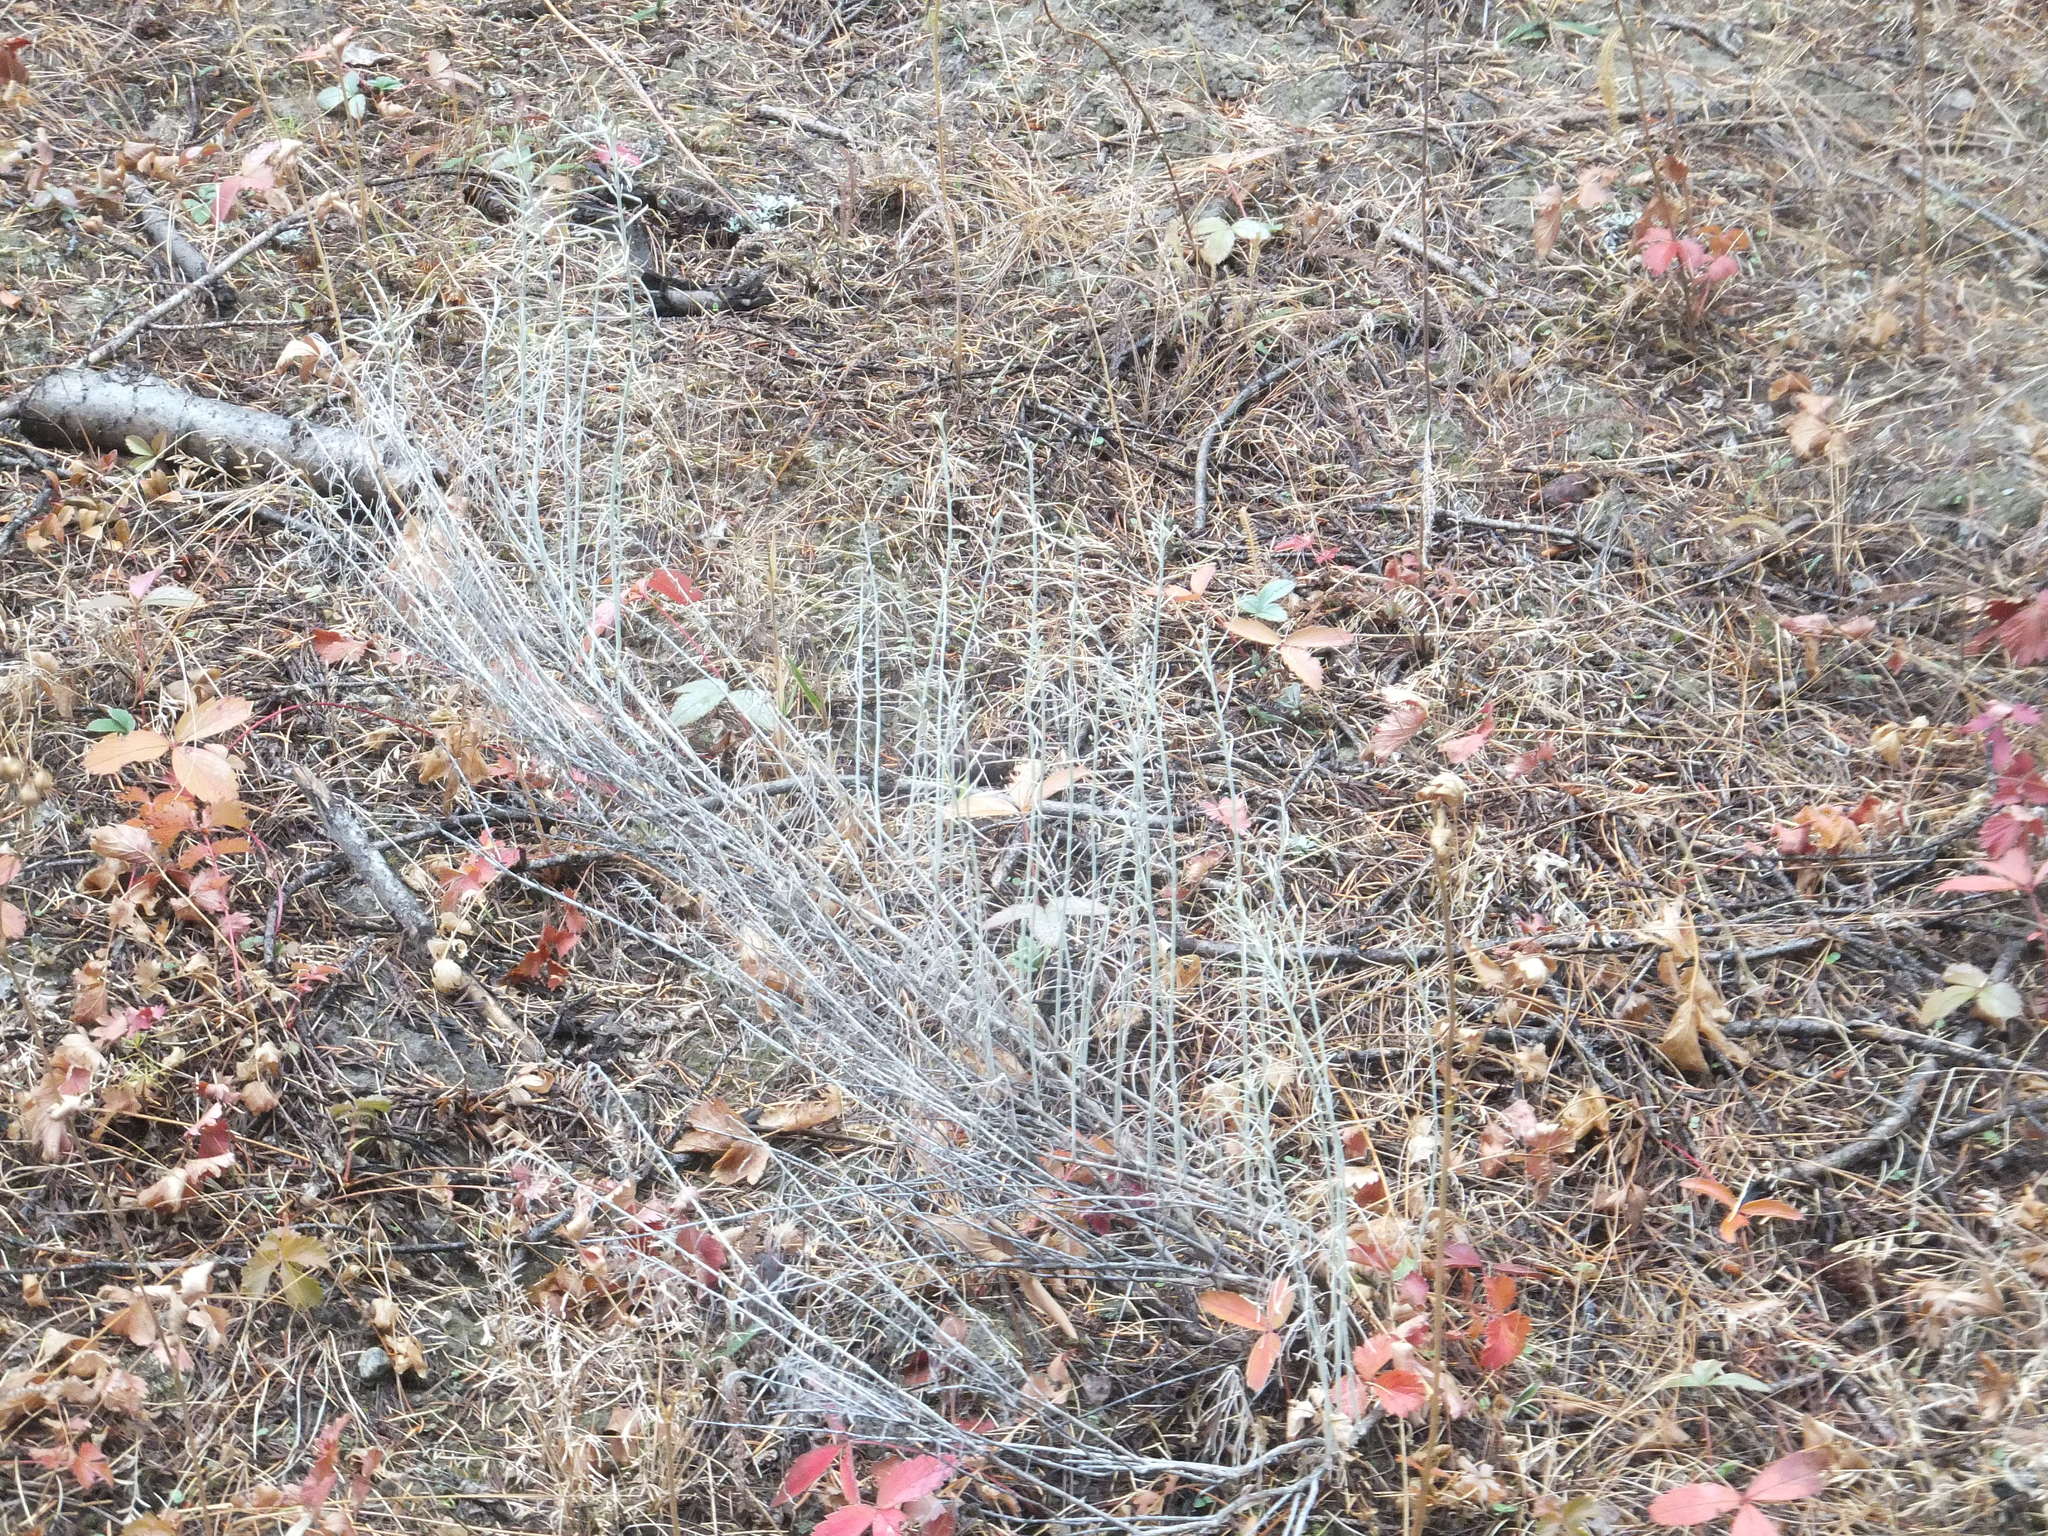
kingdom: Plantae
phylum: Tracheophyta
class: Magnoliopsida
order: Asterales
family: Asteraceae
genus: Ericameria
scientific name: Ericameria nauseosa
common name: Rubber rabbitbrush
